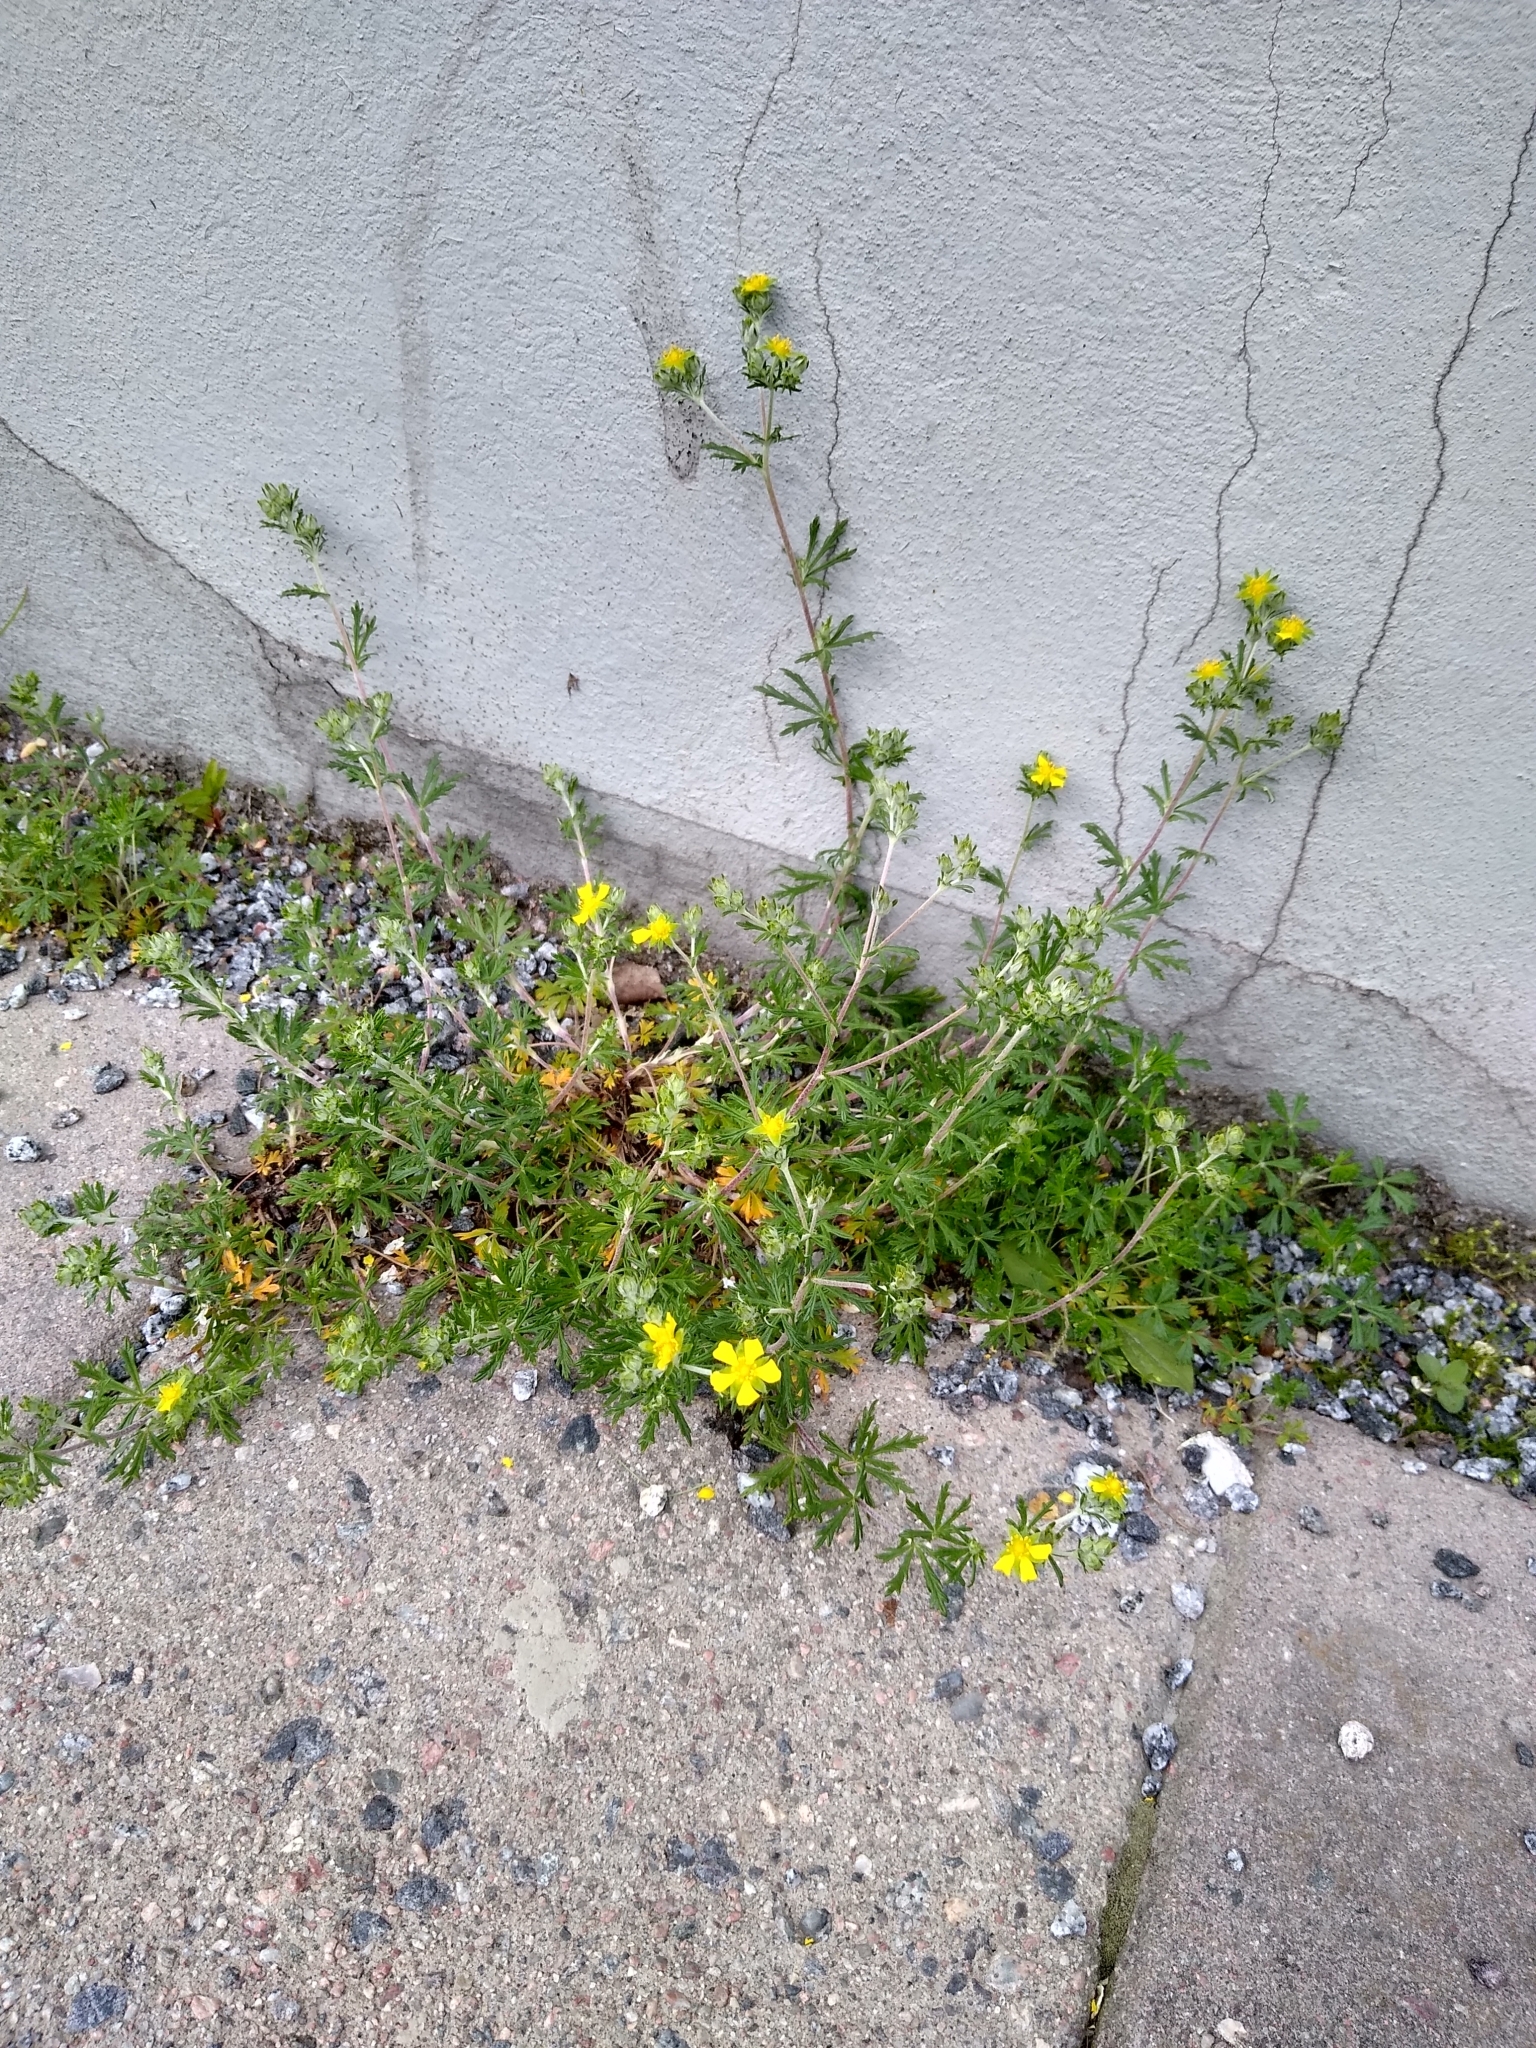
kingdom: Plantae
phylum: Tracheophyta
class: Magnoliopsida
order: Rosales
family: Rosaceae
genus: Potentilla
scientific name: Potentilla argentea
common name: Hoary cinquefoil
